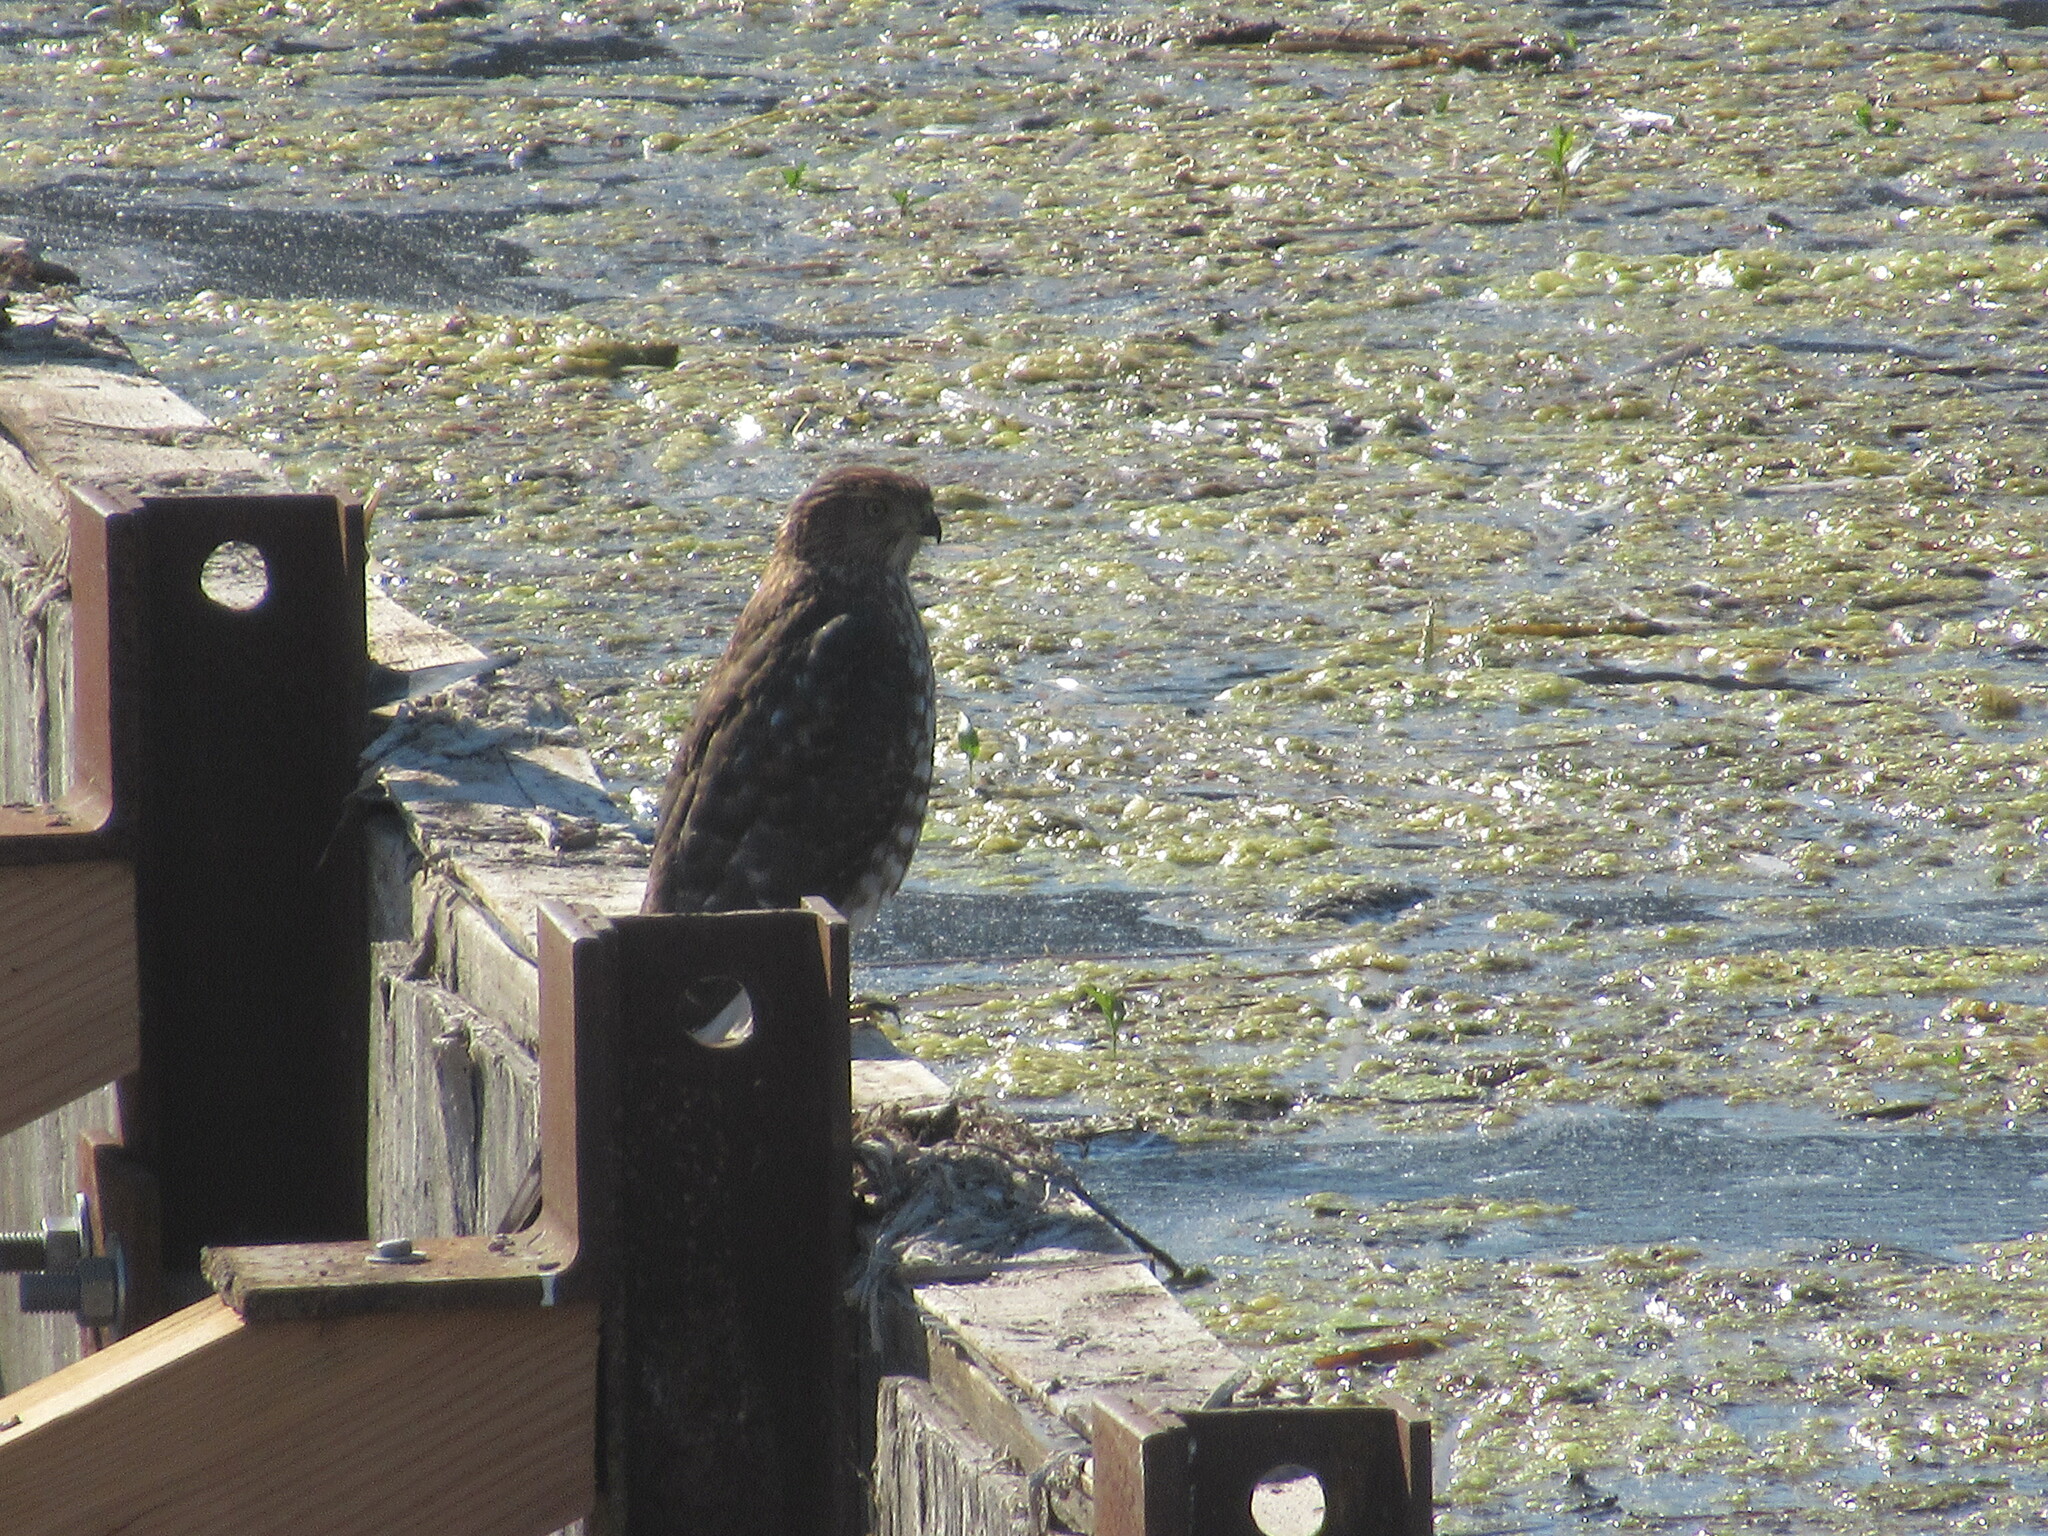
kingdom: Animalia
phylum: Chordata
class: Aves
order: Accipitriformes
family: Accipitridae
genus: Accipiter
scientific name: Accipiter cooperii
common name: Cooper's hawk
